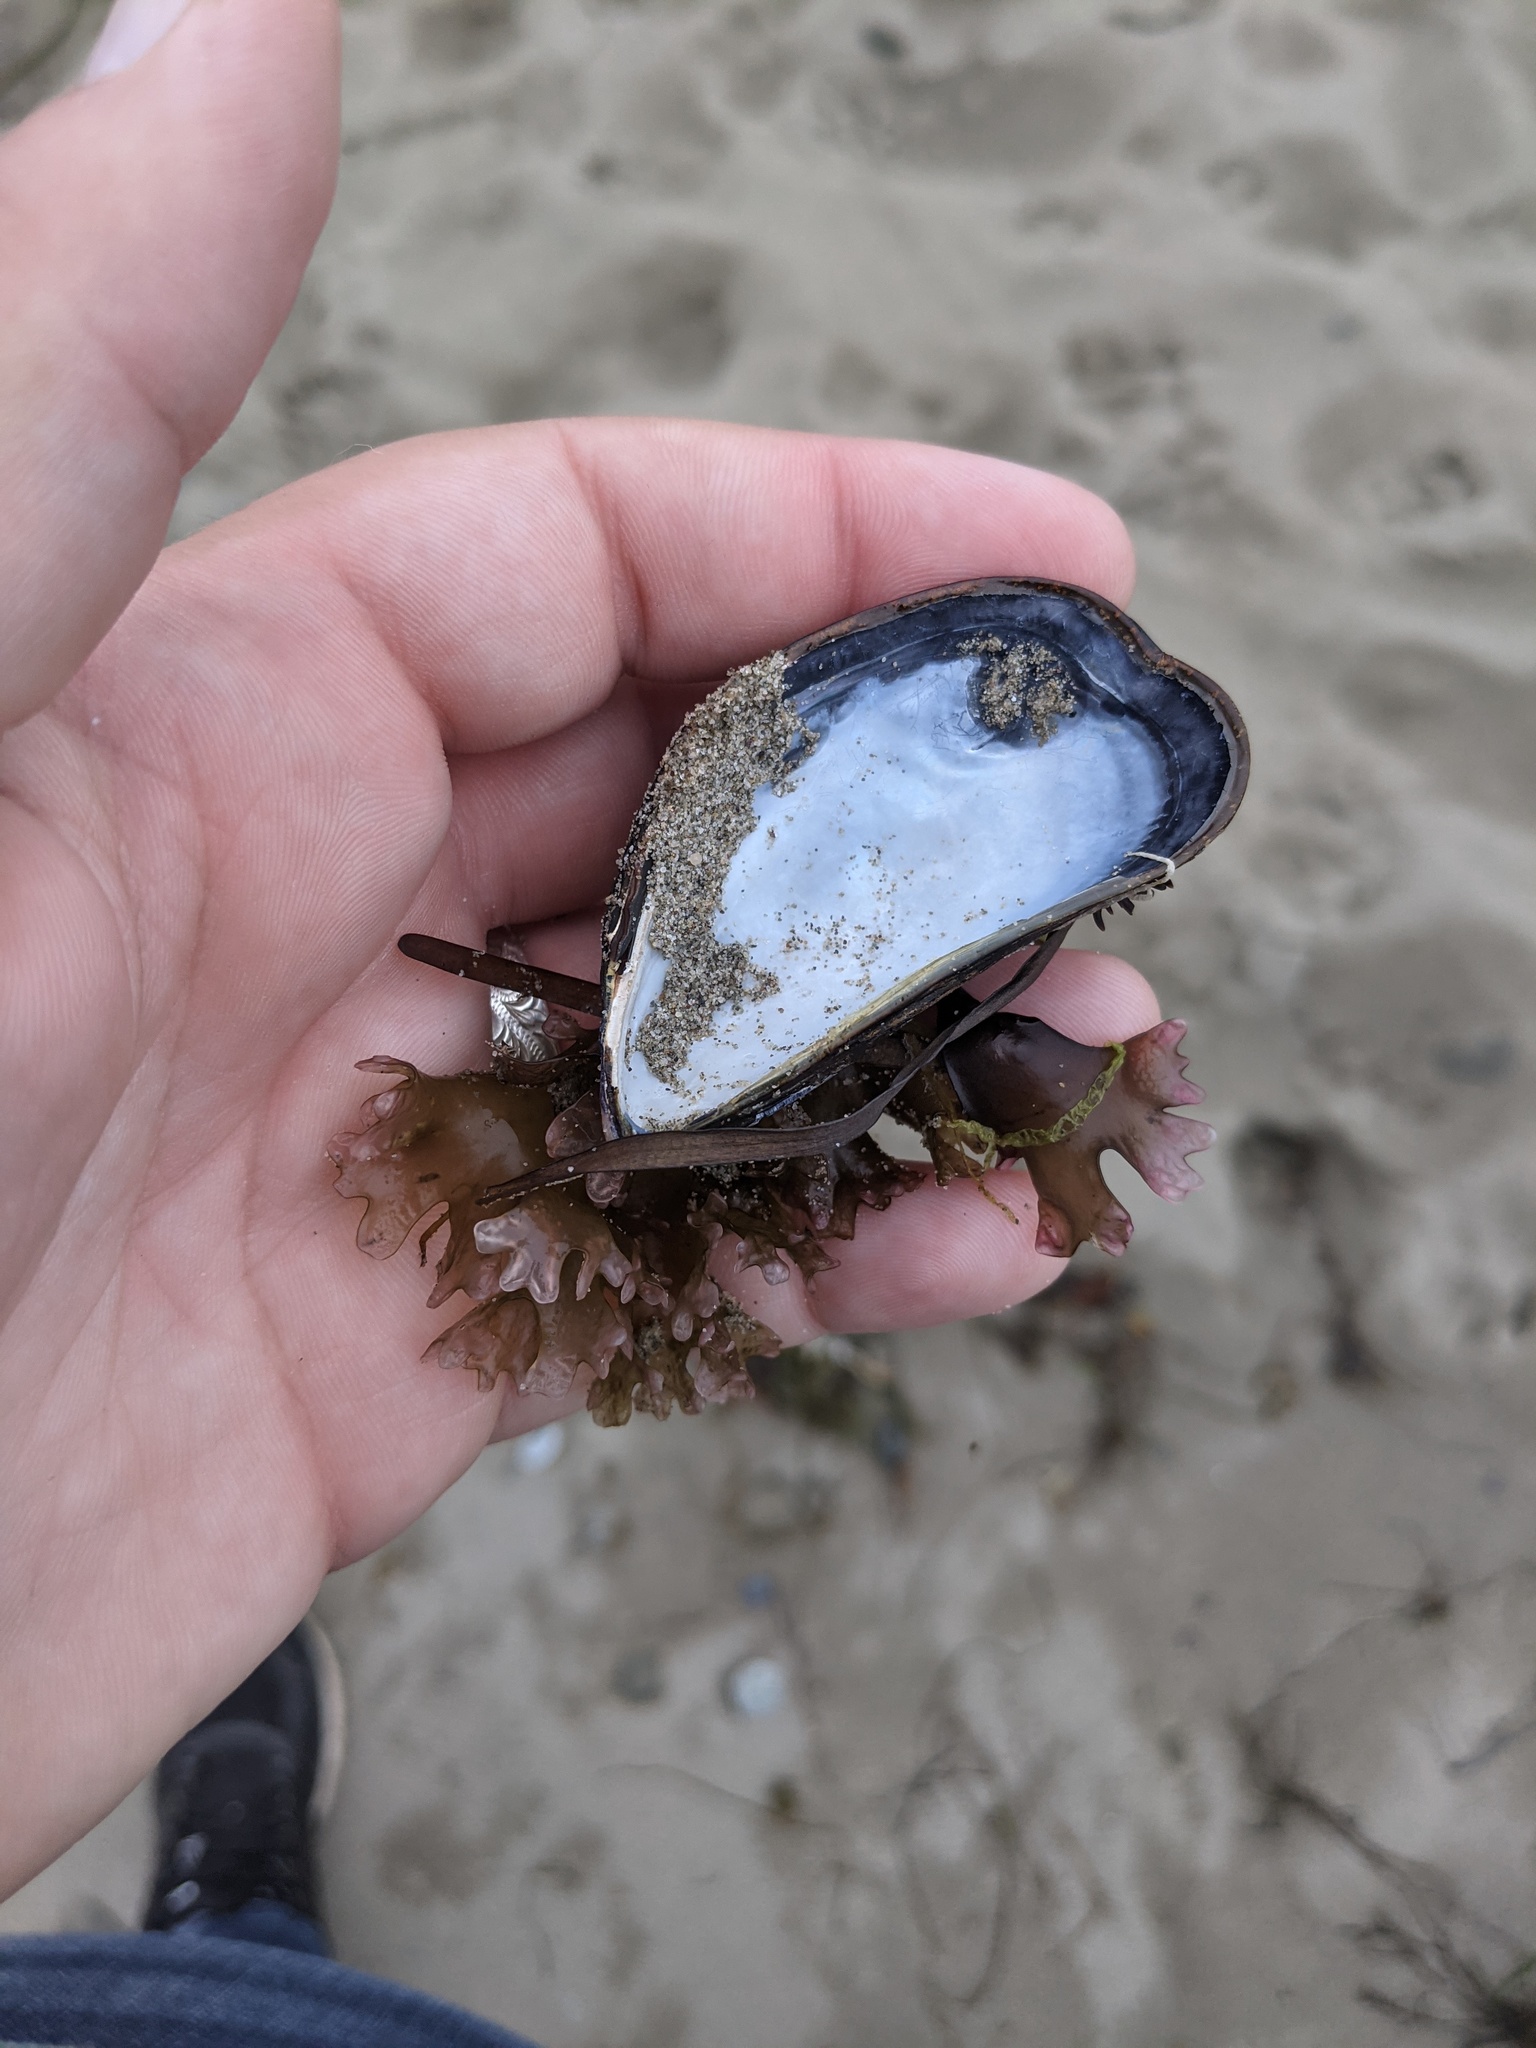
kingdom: Animalia
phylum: Mollusca
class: Bivalvia
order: Mytilida
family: Mytilidae
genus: Mytilus
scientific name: Mytilus edulis
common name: Blue mussel
